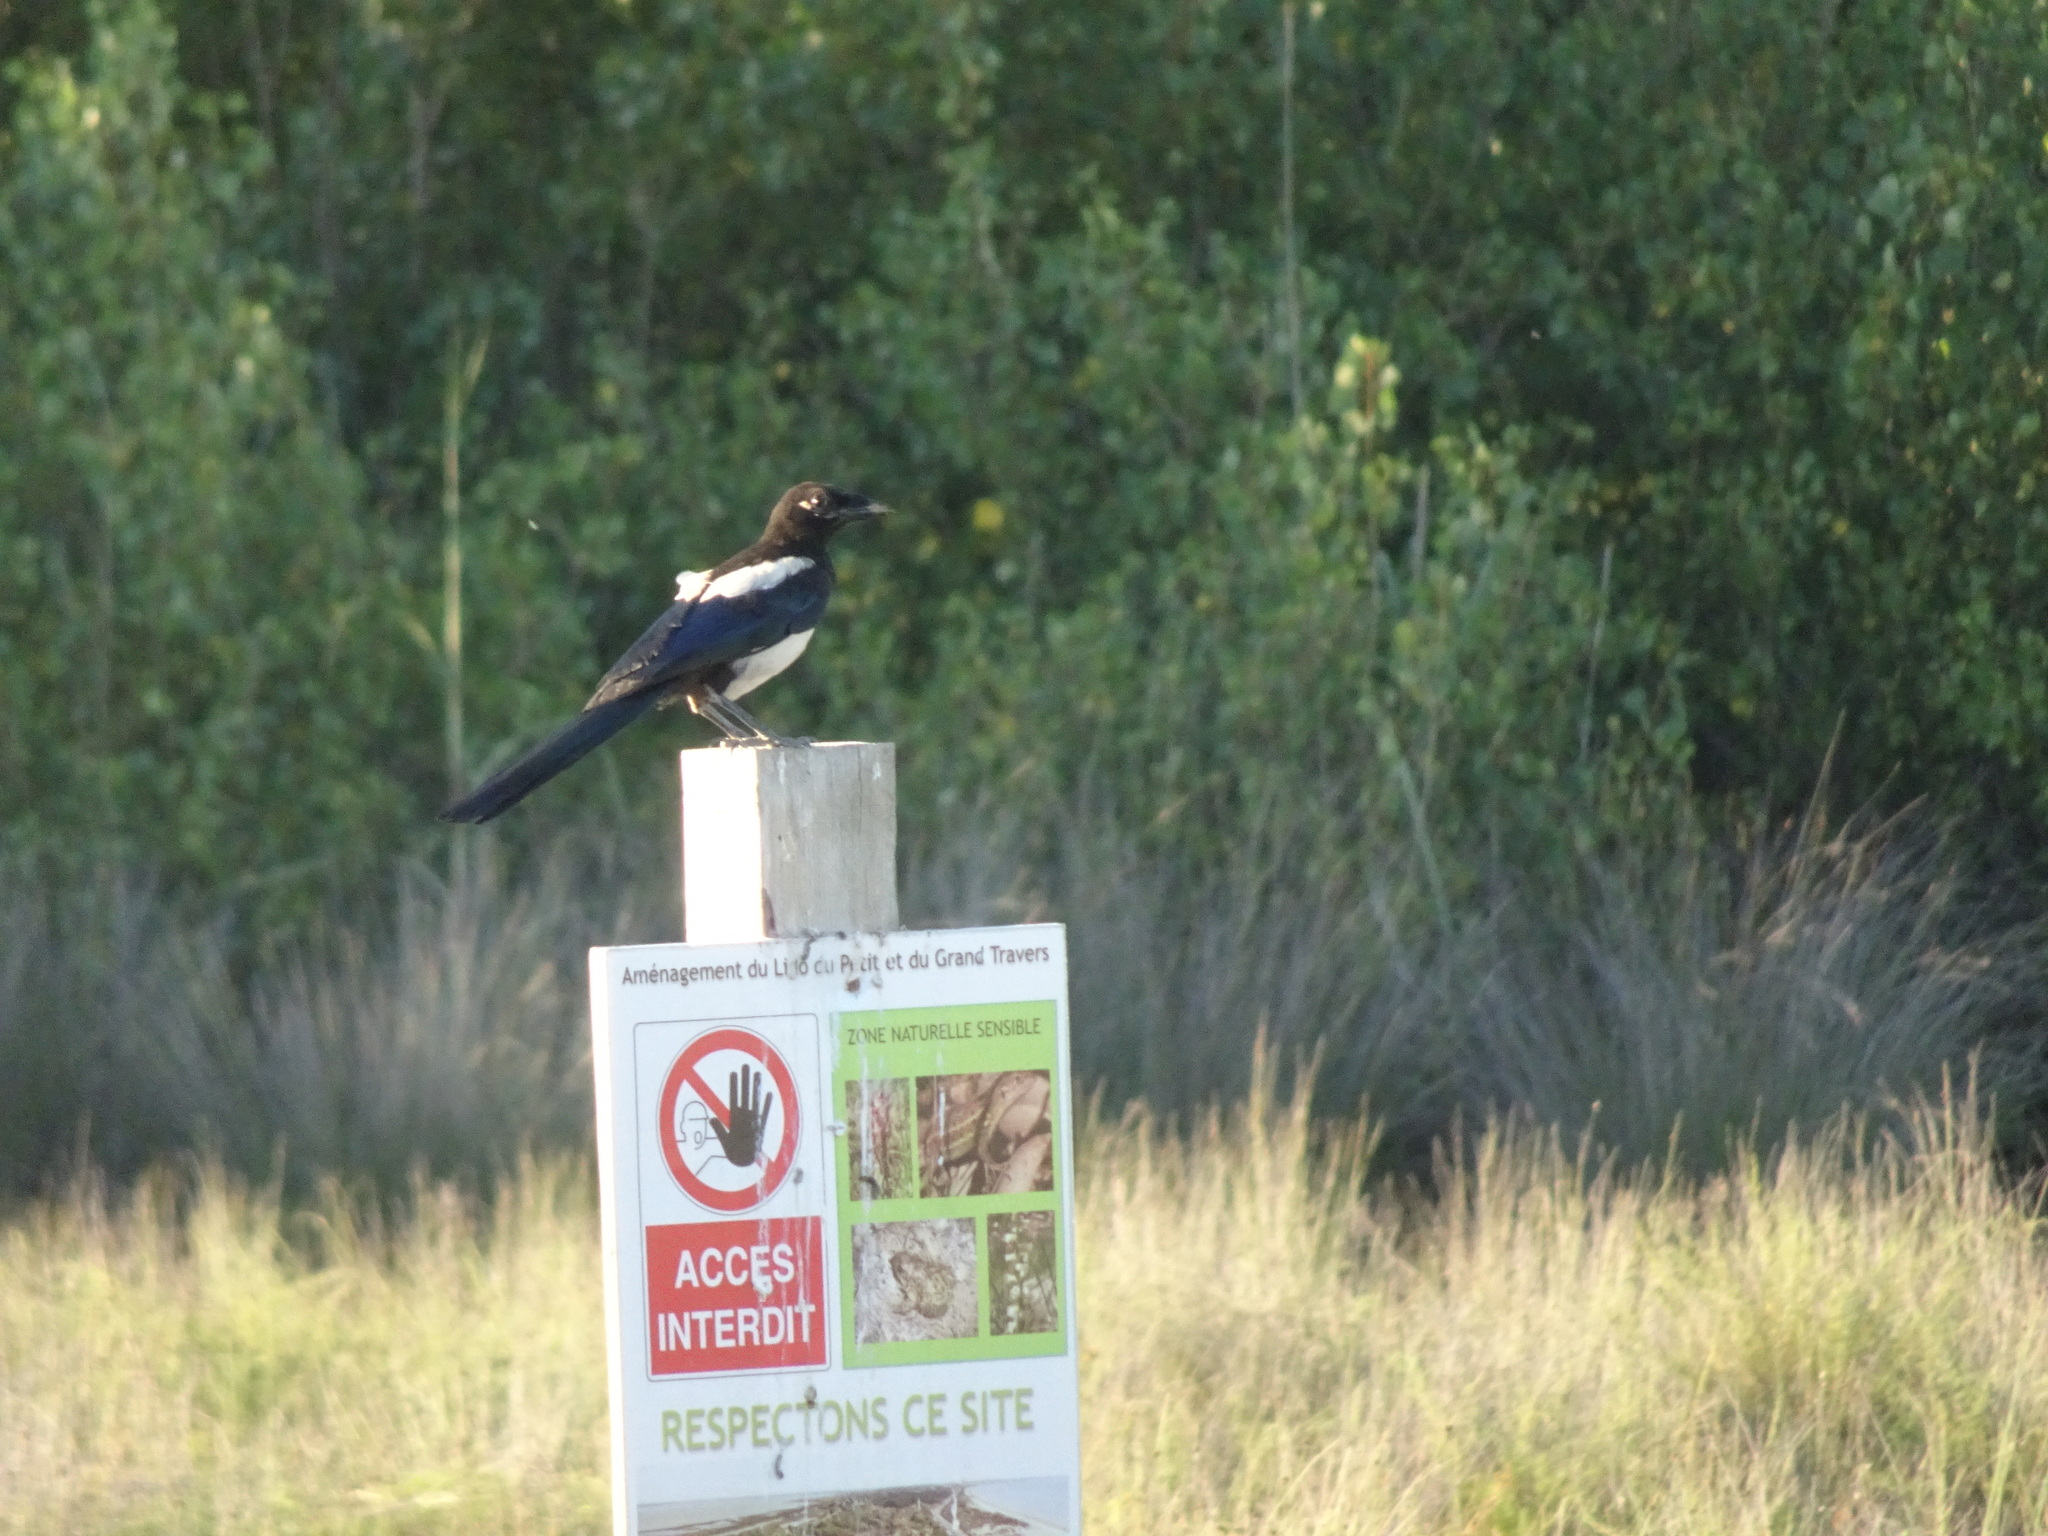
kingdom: Animalia
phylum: Chordata
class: Aves
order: Passeriformes
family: Corvidae
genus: Pica
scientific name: Pica pica
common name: Eurasian magpie
